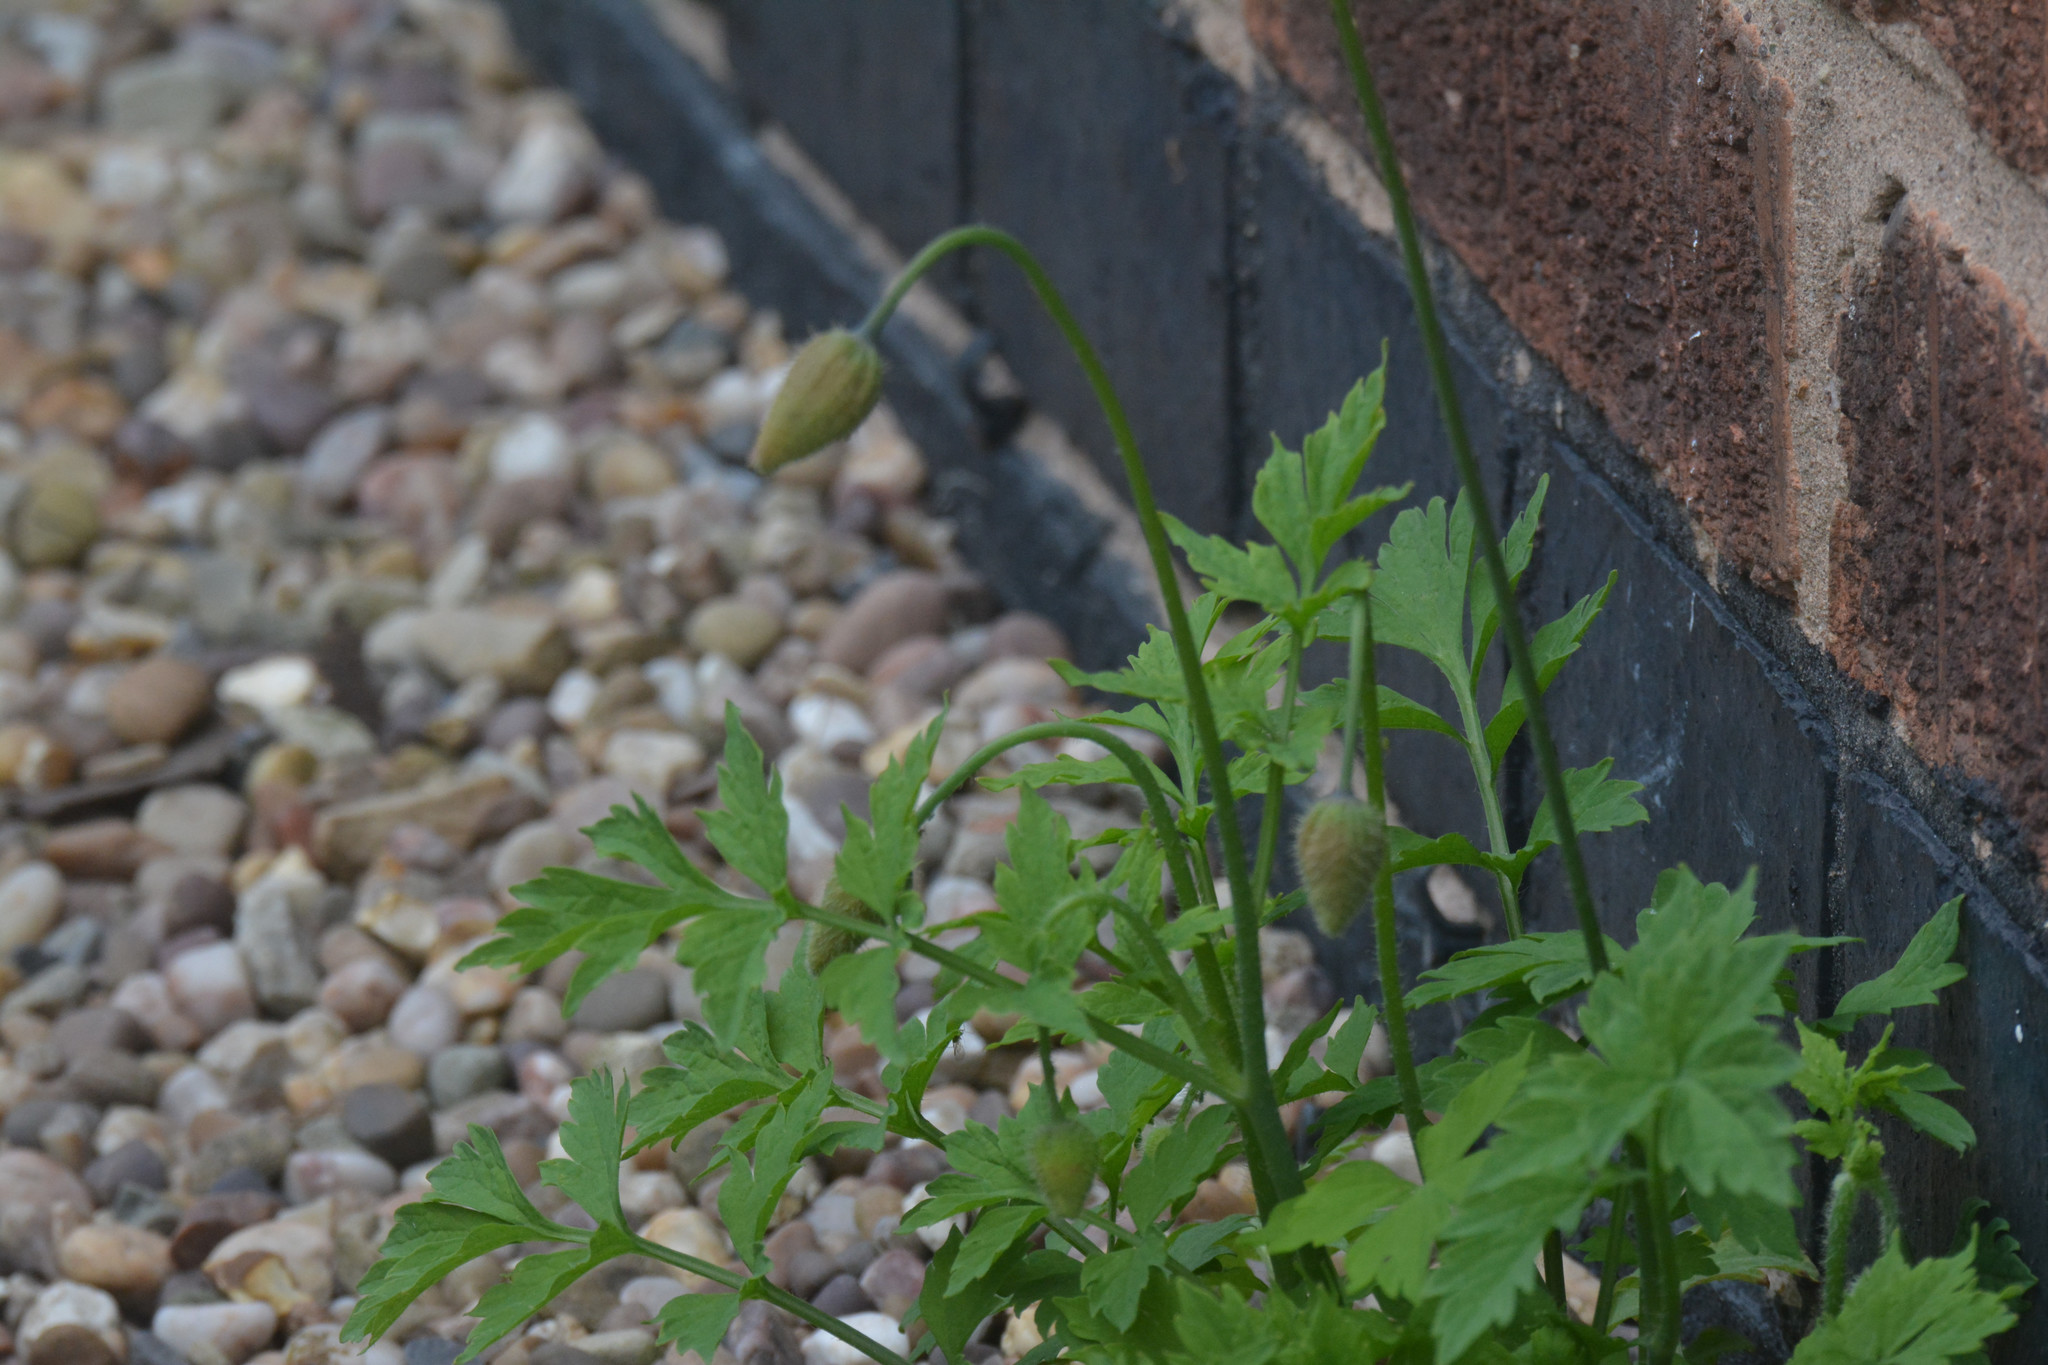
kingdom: Plantae
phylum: Tracheophyta
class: Magnoliopsida
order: Ranunculales
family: Papaveraceae
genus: Papaver
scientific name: Papaver cambricum
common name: Poppy
